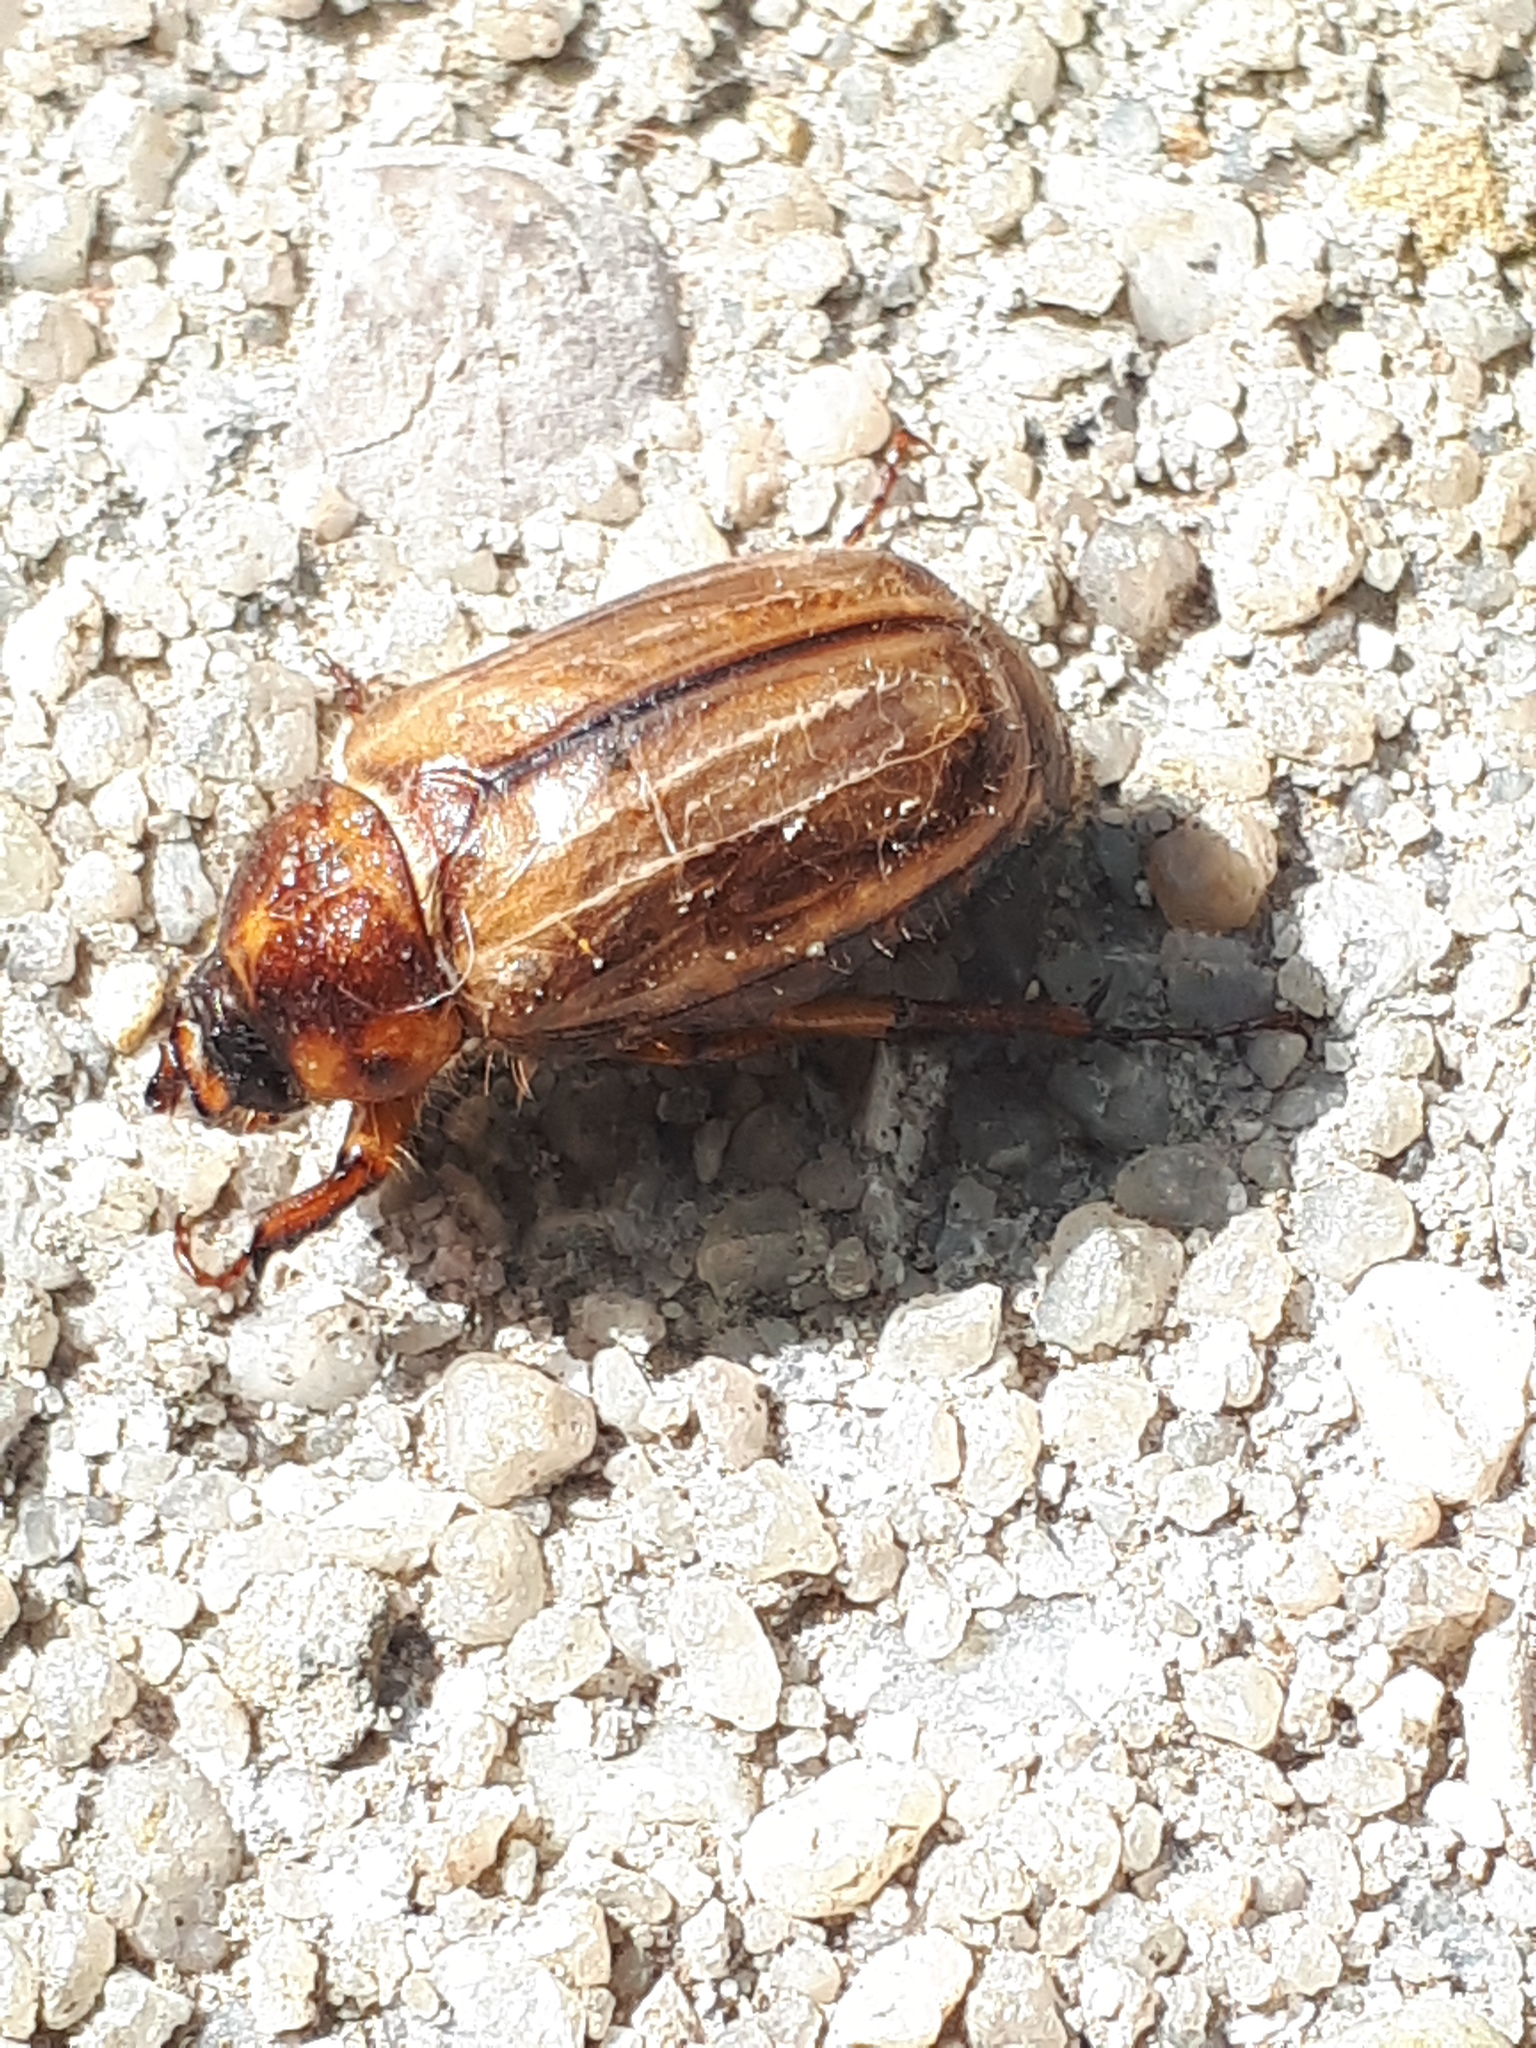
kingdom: Animalia
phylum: Arthropoda
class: Insecta
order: Coleoptera
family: Scarabaeidae
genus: Amphimallon
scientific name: Amphimallon solstitiale
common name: Summer chafer
